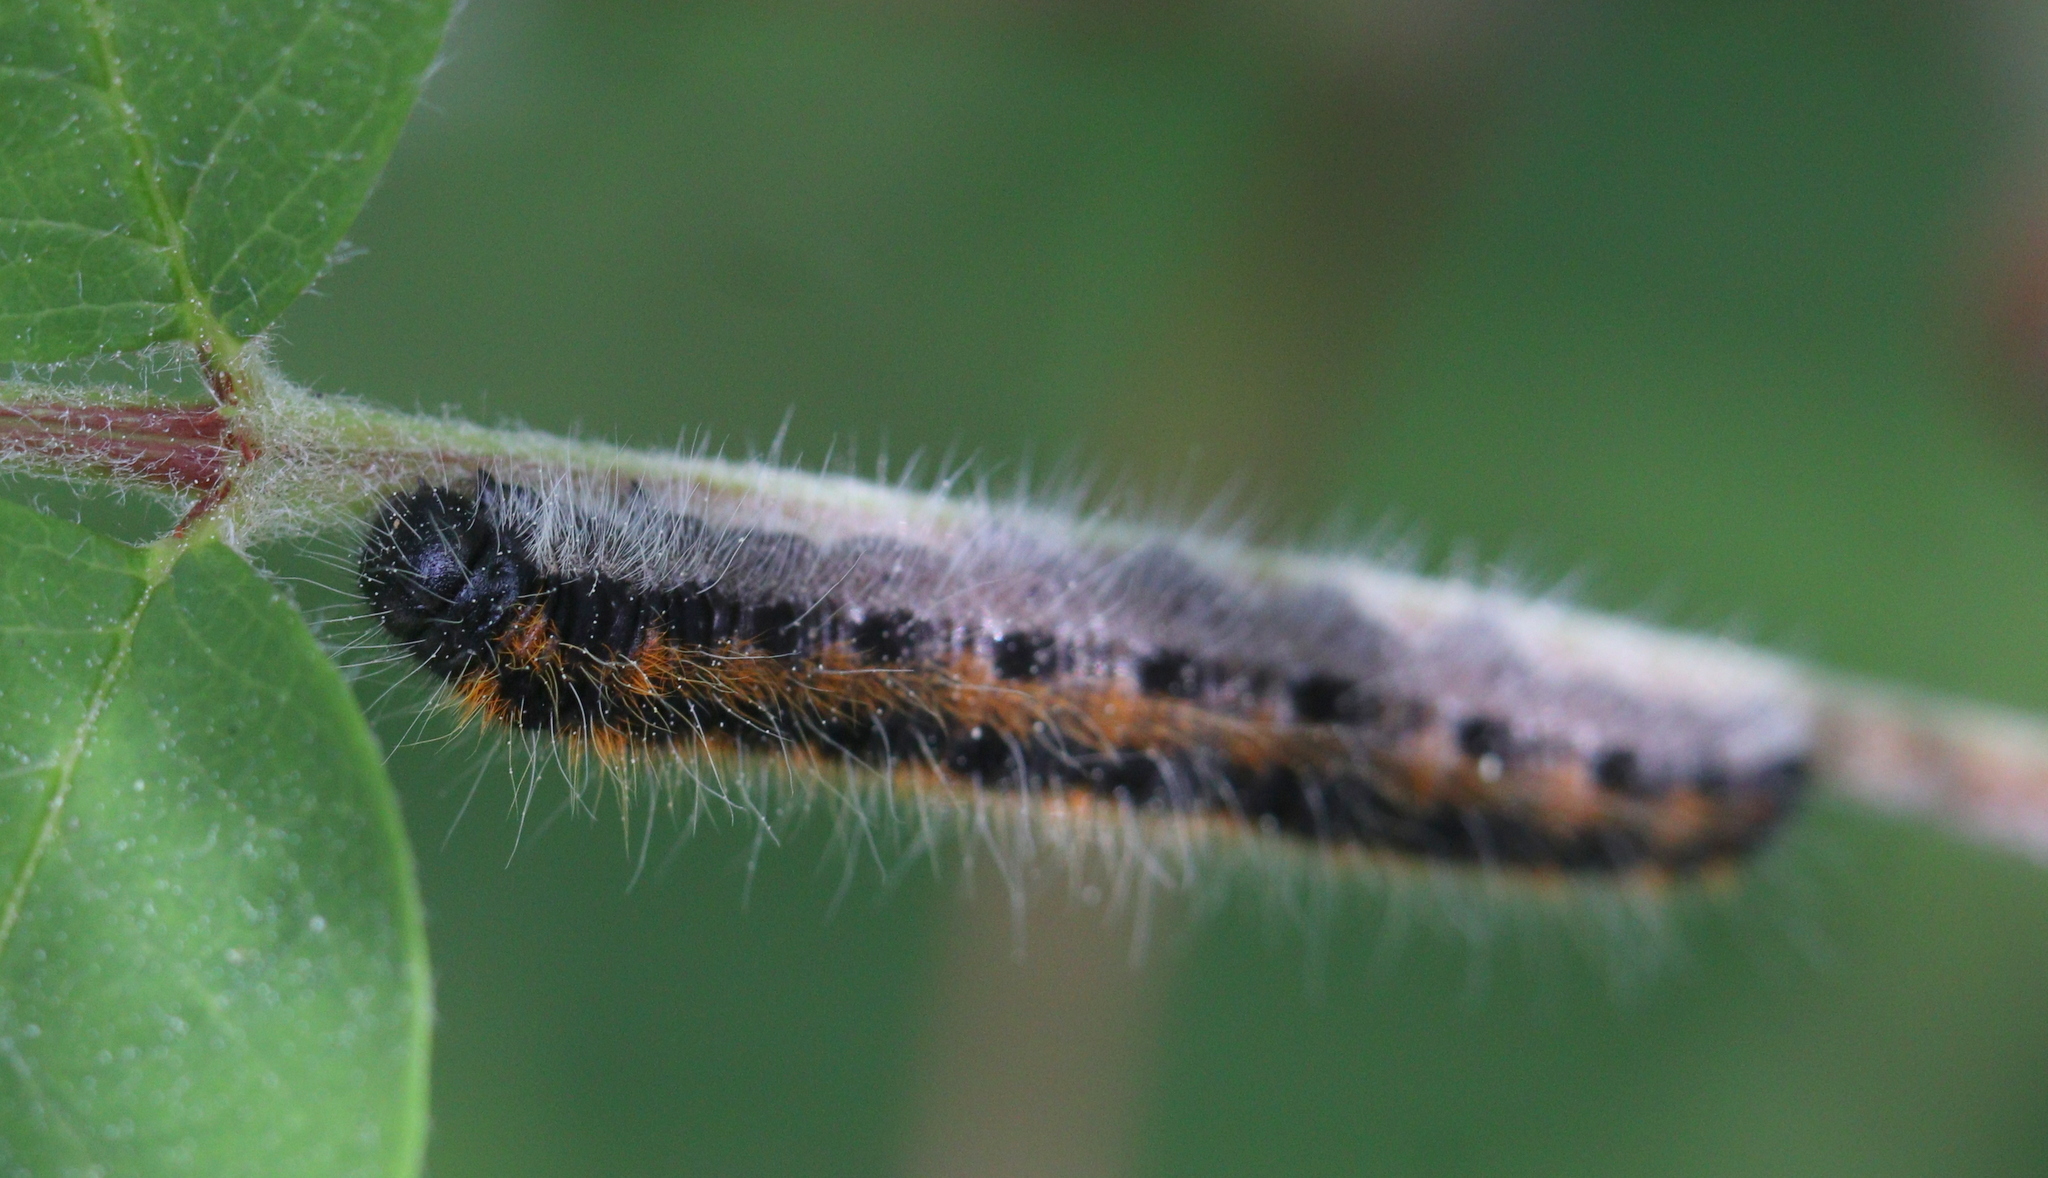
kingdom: Animalia
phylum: Arthropoda
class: Insecta
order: Lepidoptera
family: Pieridae
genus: Aporia
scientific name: Aporia crataegi
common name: Black-veined white
